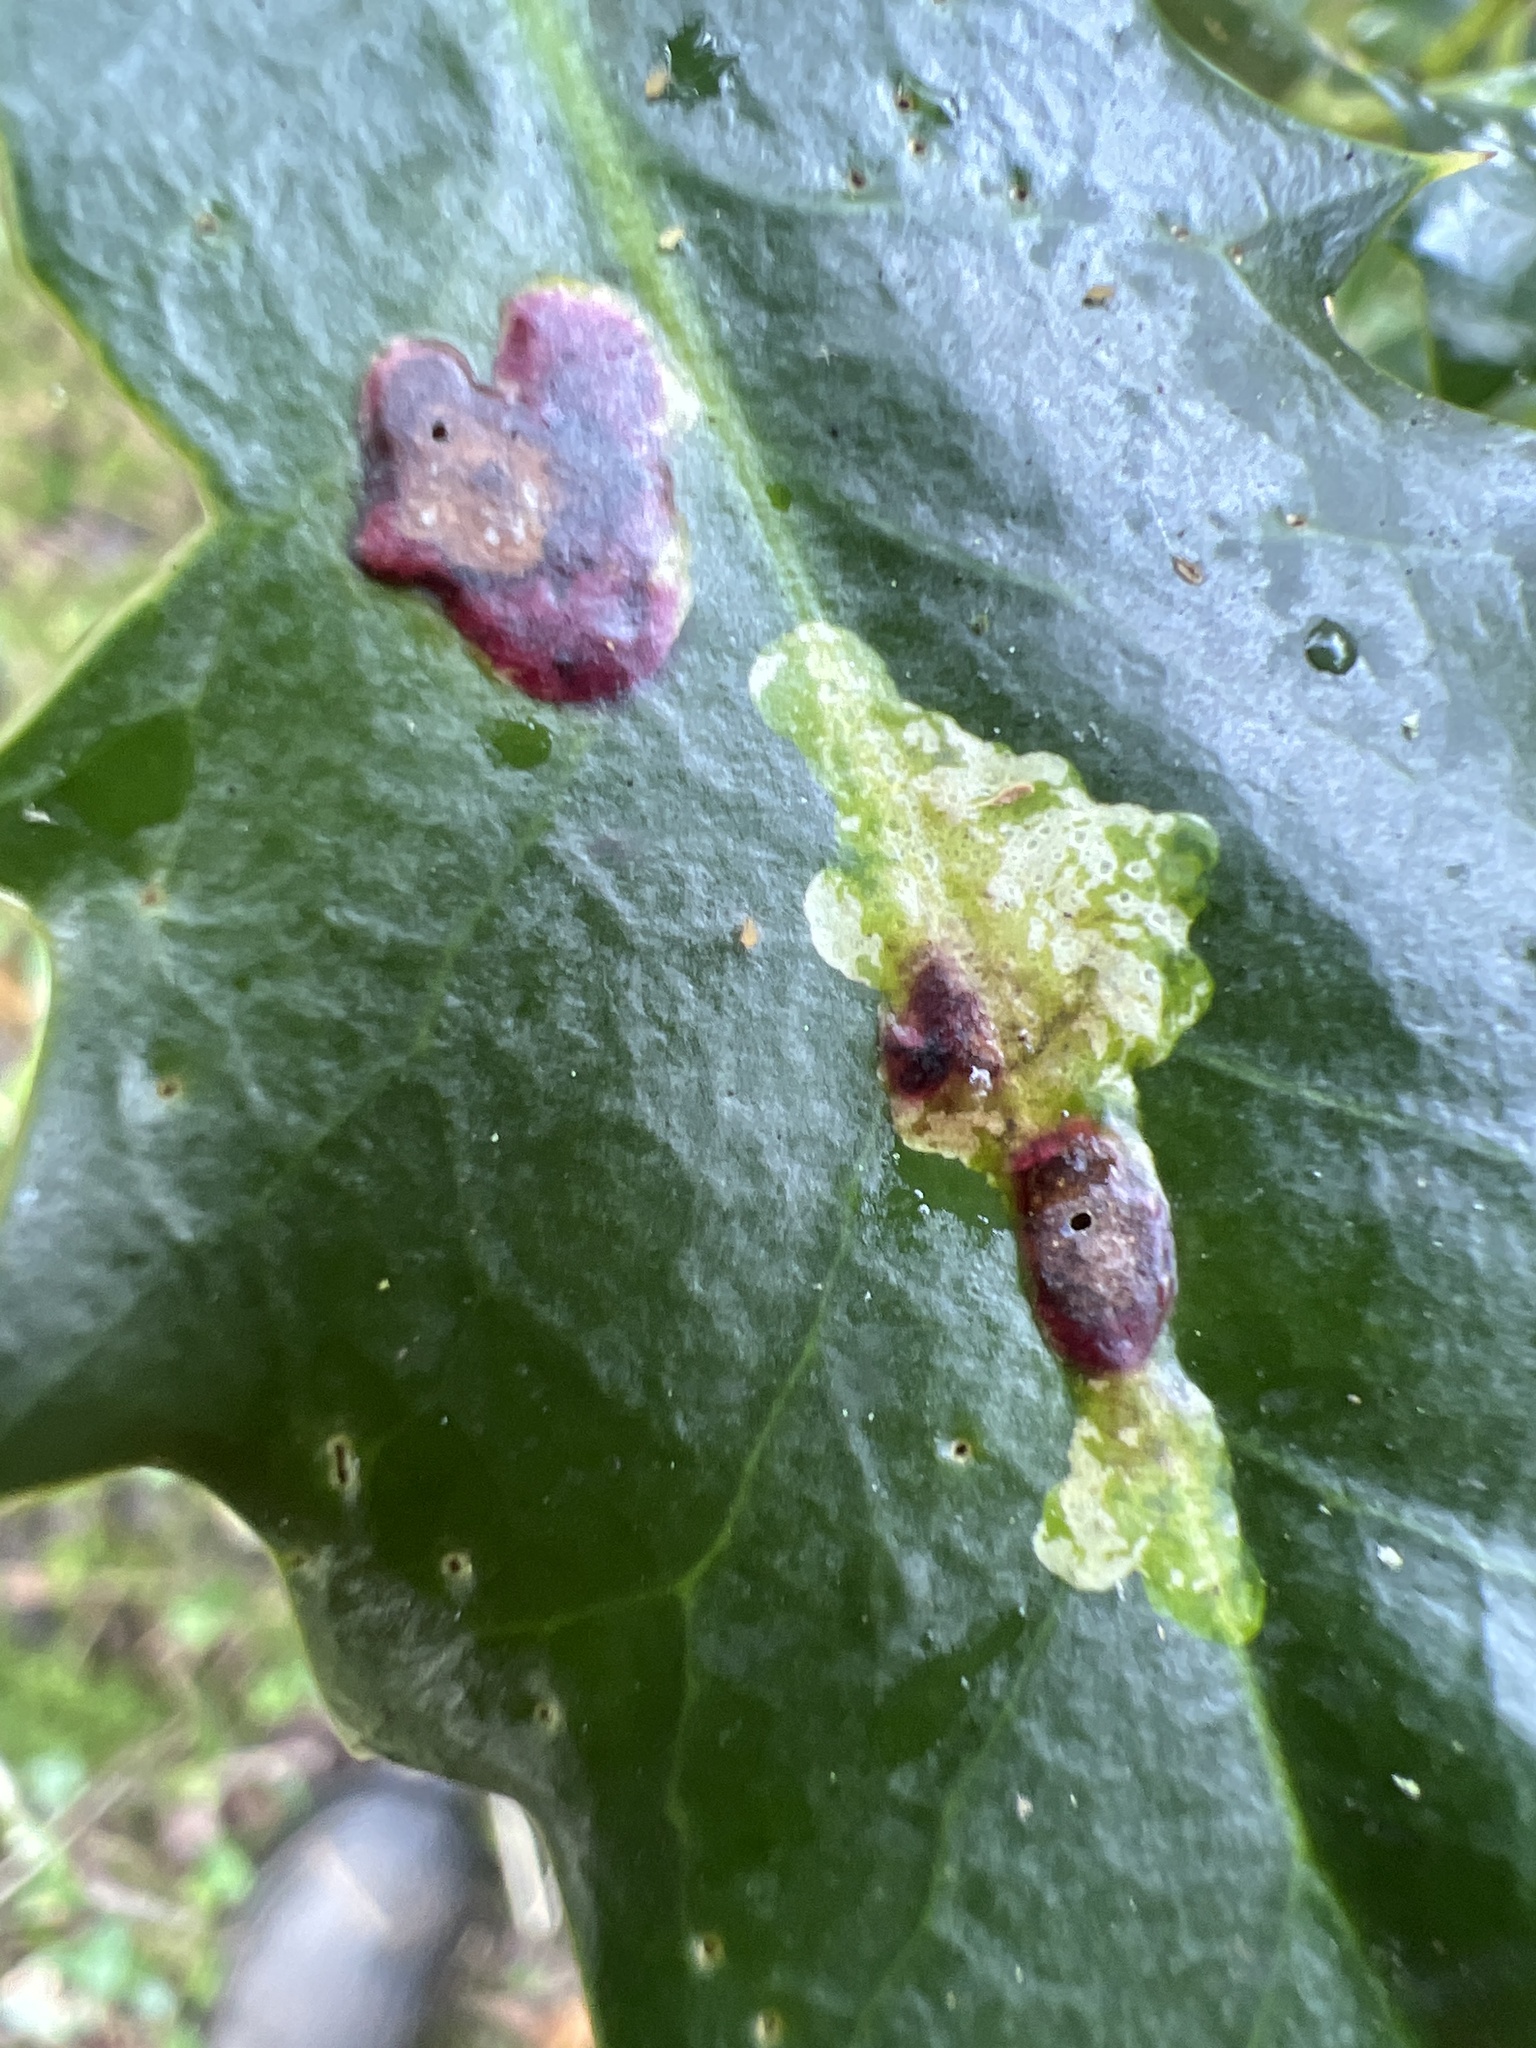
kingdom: Animalia
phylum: Arthropoda
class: Insecta
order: Diptera
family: Agromyzidae
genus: Phytomyza
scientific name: Phytomyza ilicis
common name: Holly leafminer
